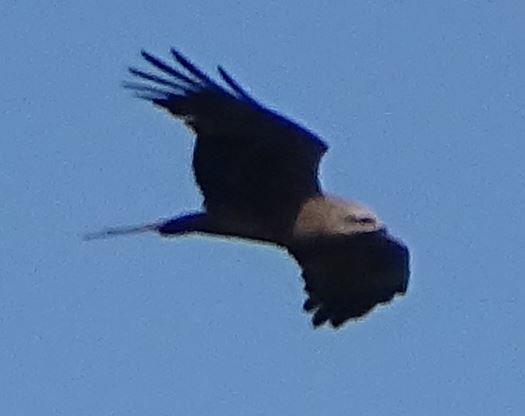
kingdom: Animalia
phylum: Chordata
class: Aves
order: Accipitriformes
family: Accipitridae
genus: Milvus
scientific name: Milvus migrans
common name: Black kite
